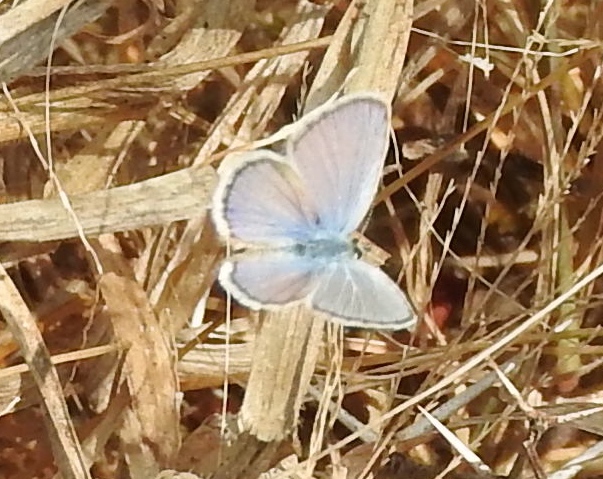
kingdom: Animalia
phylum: Arthropoda
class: Insecta
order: Lepidoptera
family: Lycaenidae
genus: Hemiargus
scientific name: Hemiargus ceraunus
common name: Ceraunus blue
